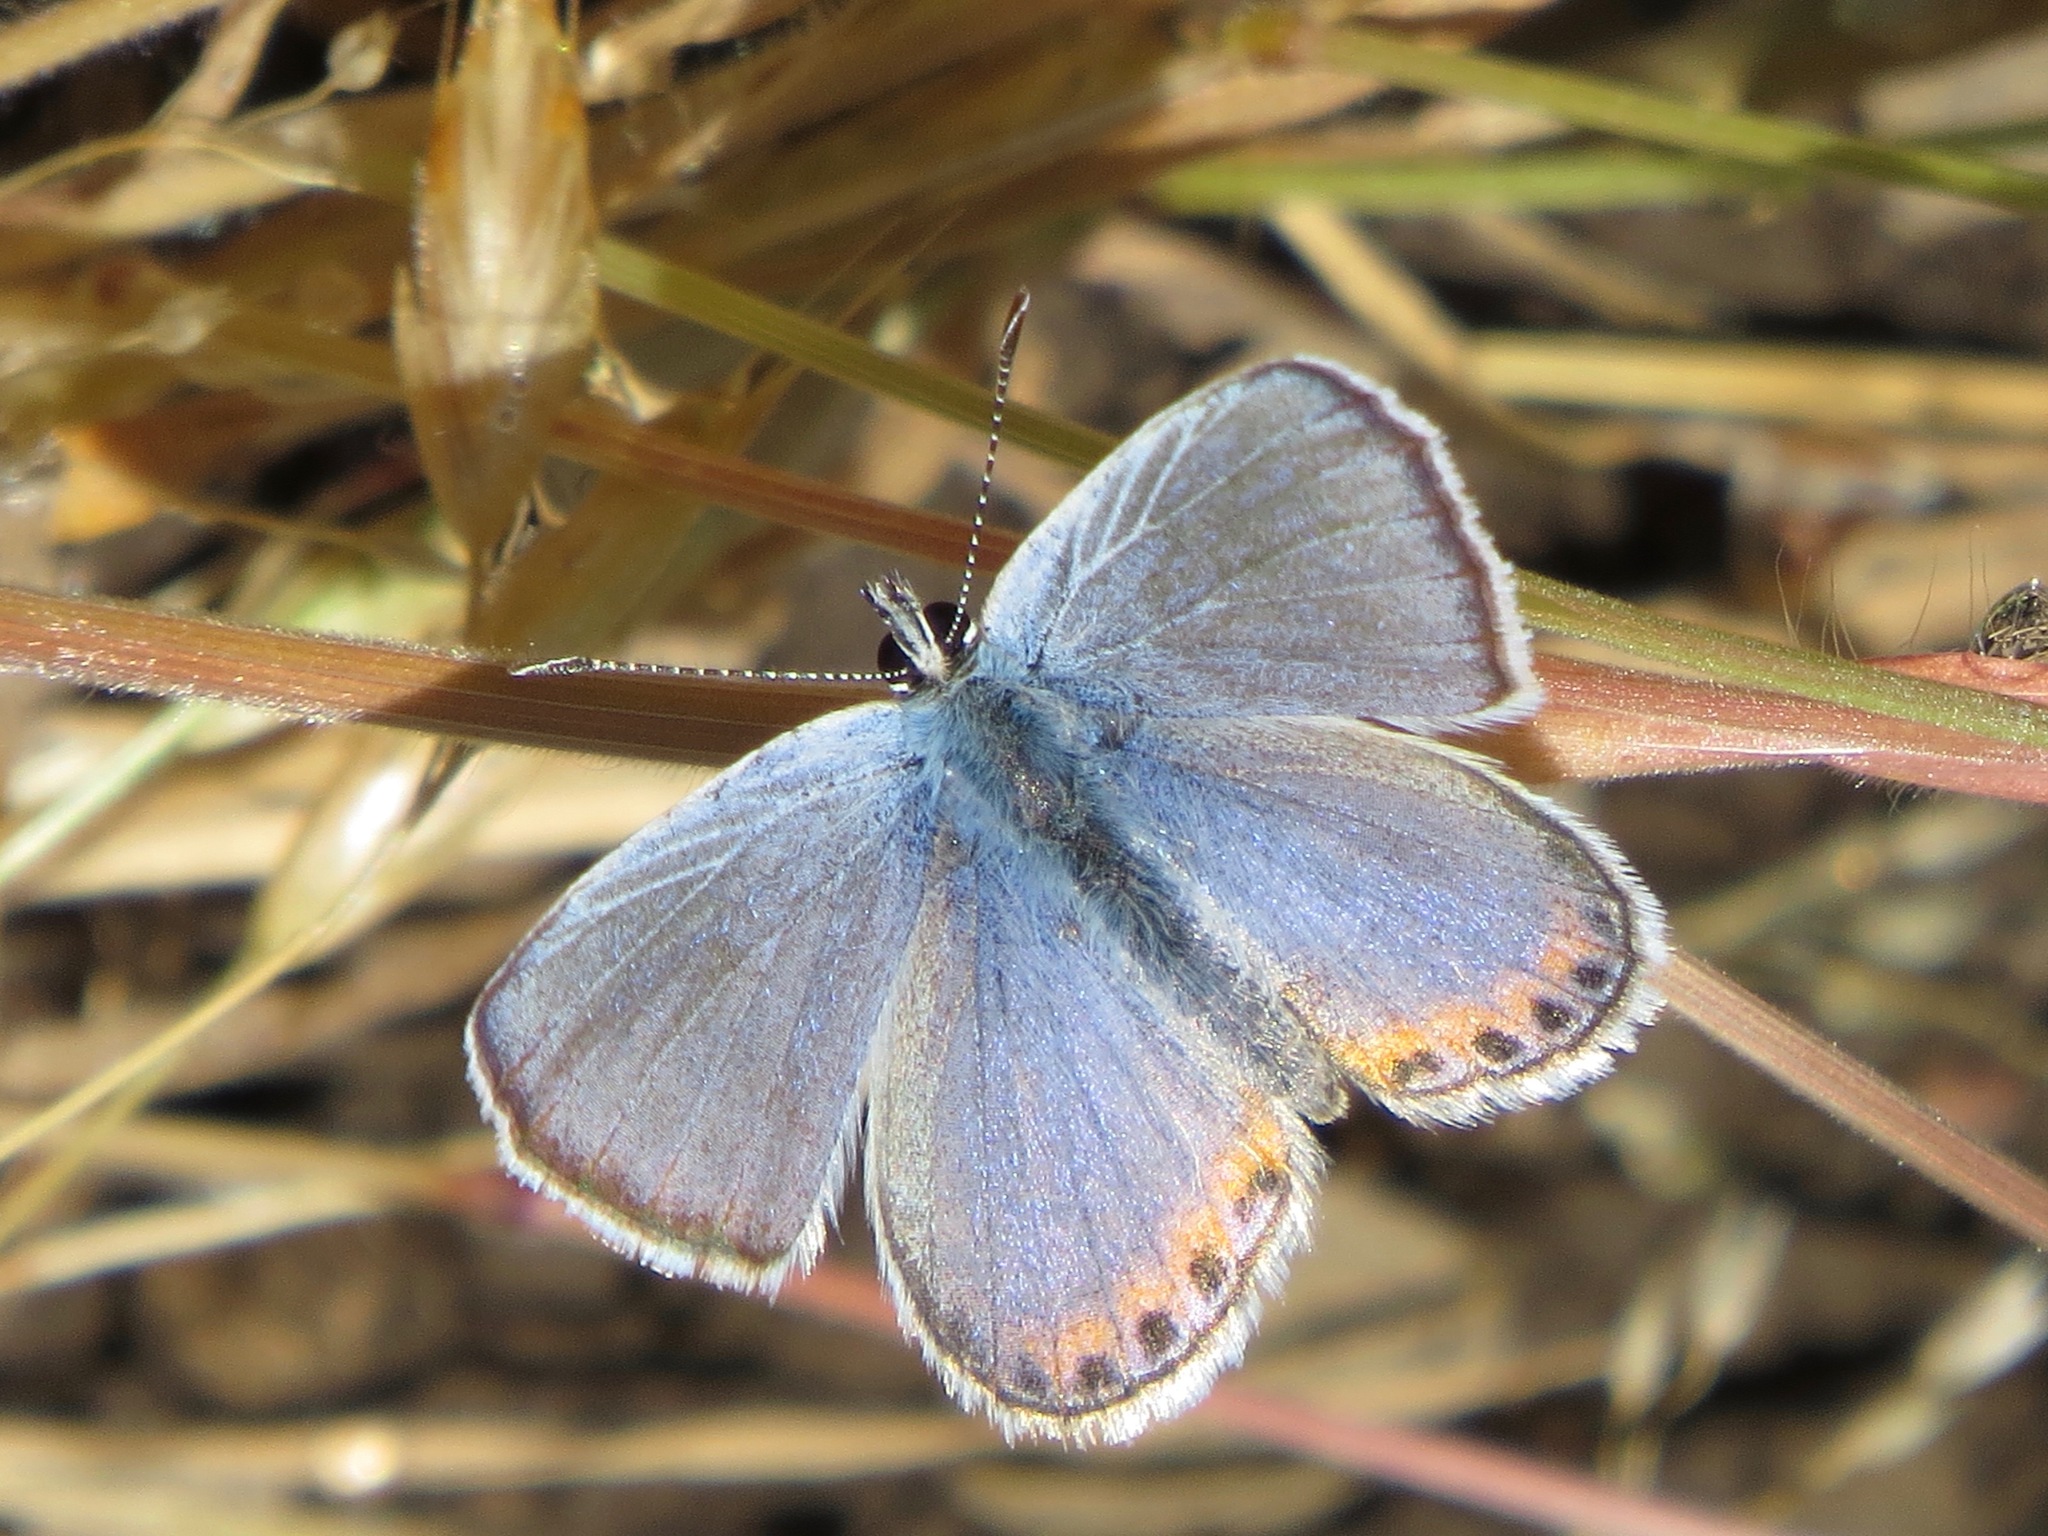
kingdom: Animalia
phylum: Arthropoda
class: Insecta
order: Lepidoptera
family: Lycaenidae
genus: Icaricia
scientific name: Icaricia acmon
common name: Acmon blue
